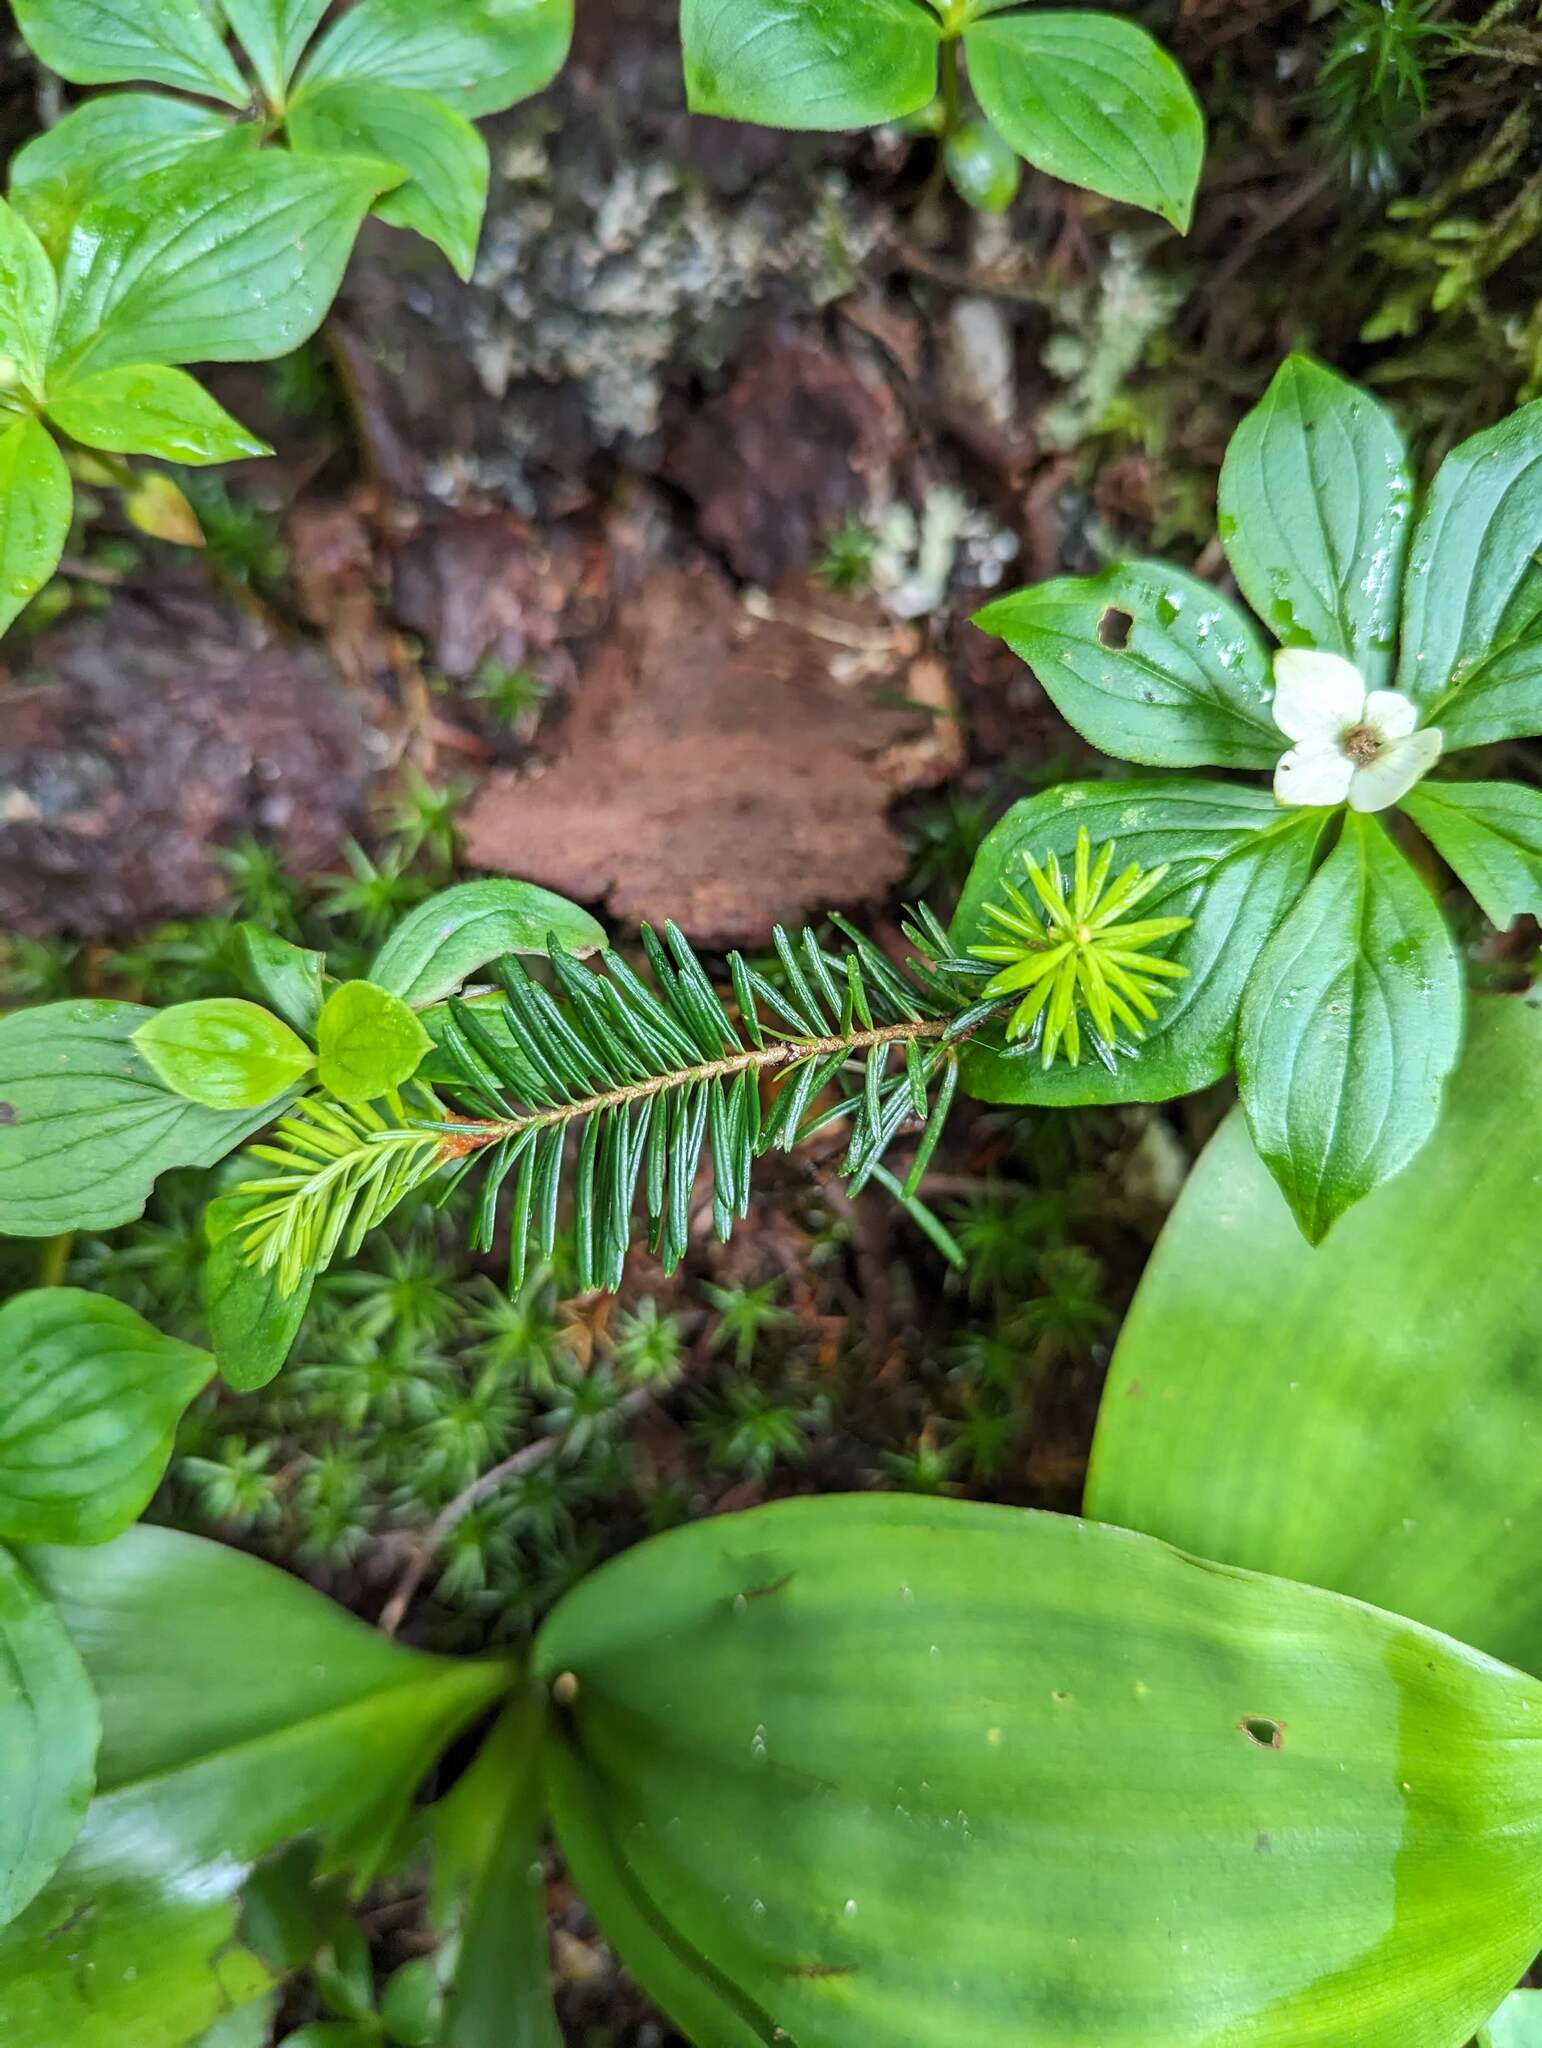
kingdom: Plantae
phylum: Tracheophyta
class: Pinopsida
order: Pinales
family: Pinaceae
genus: Abies
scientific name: Abies balsamea
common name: Balsam fir
